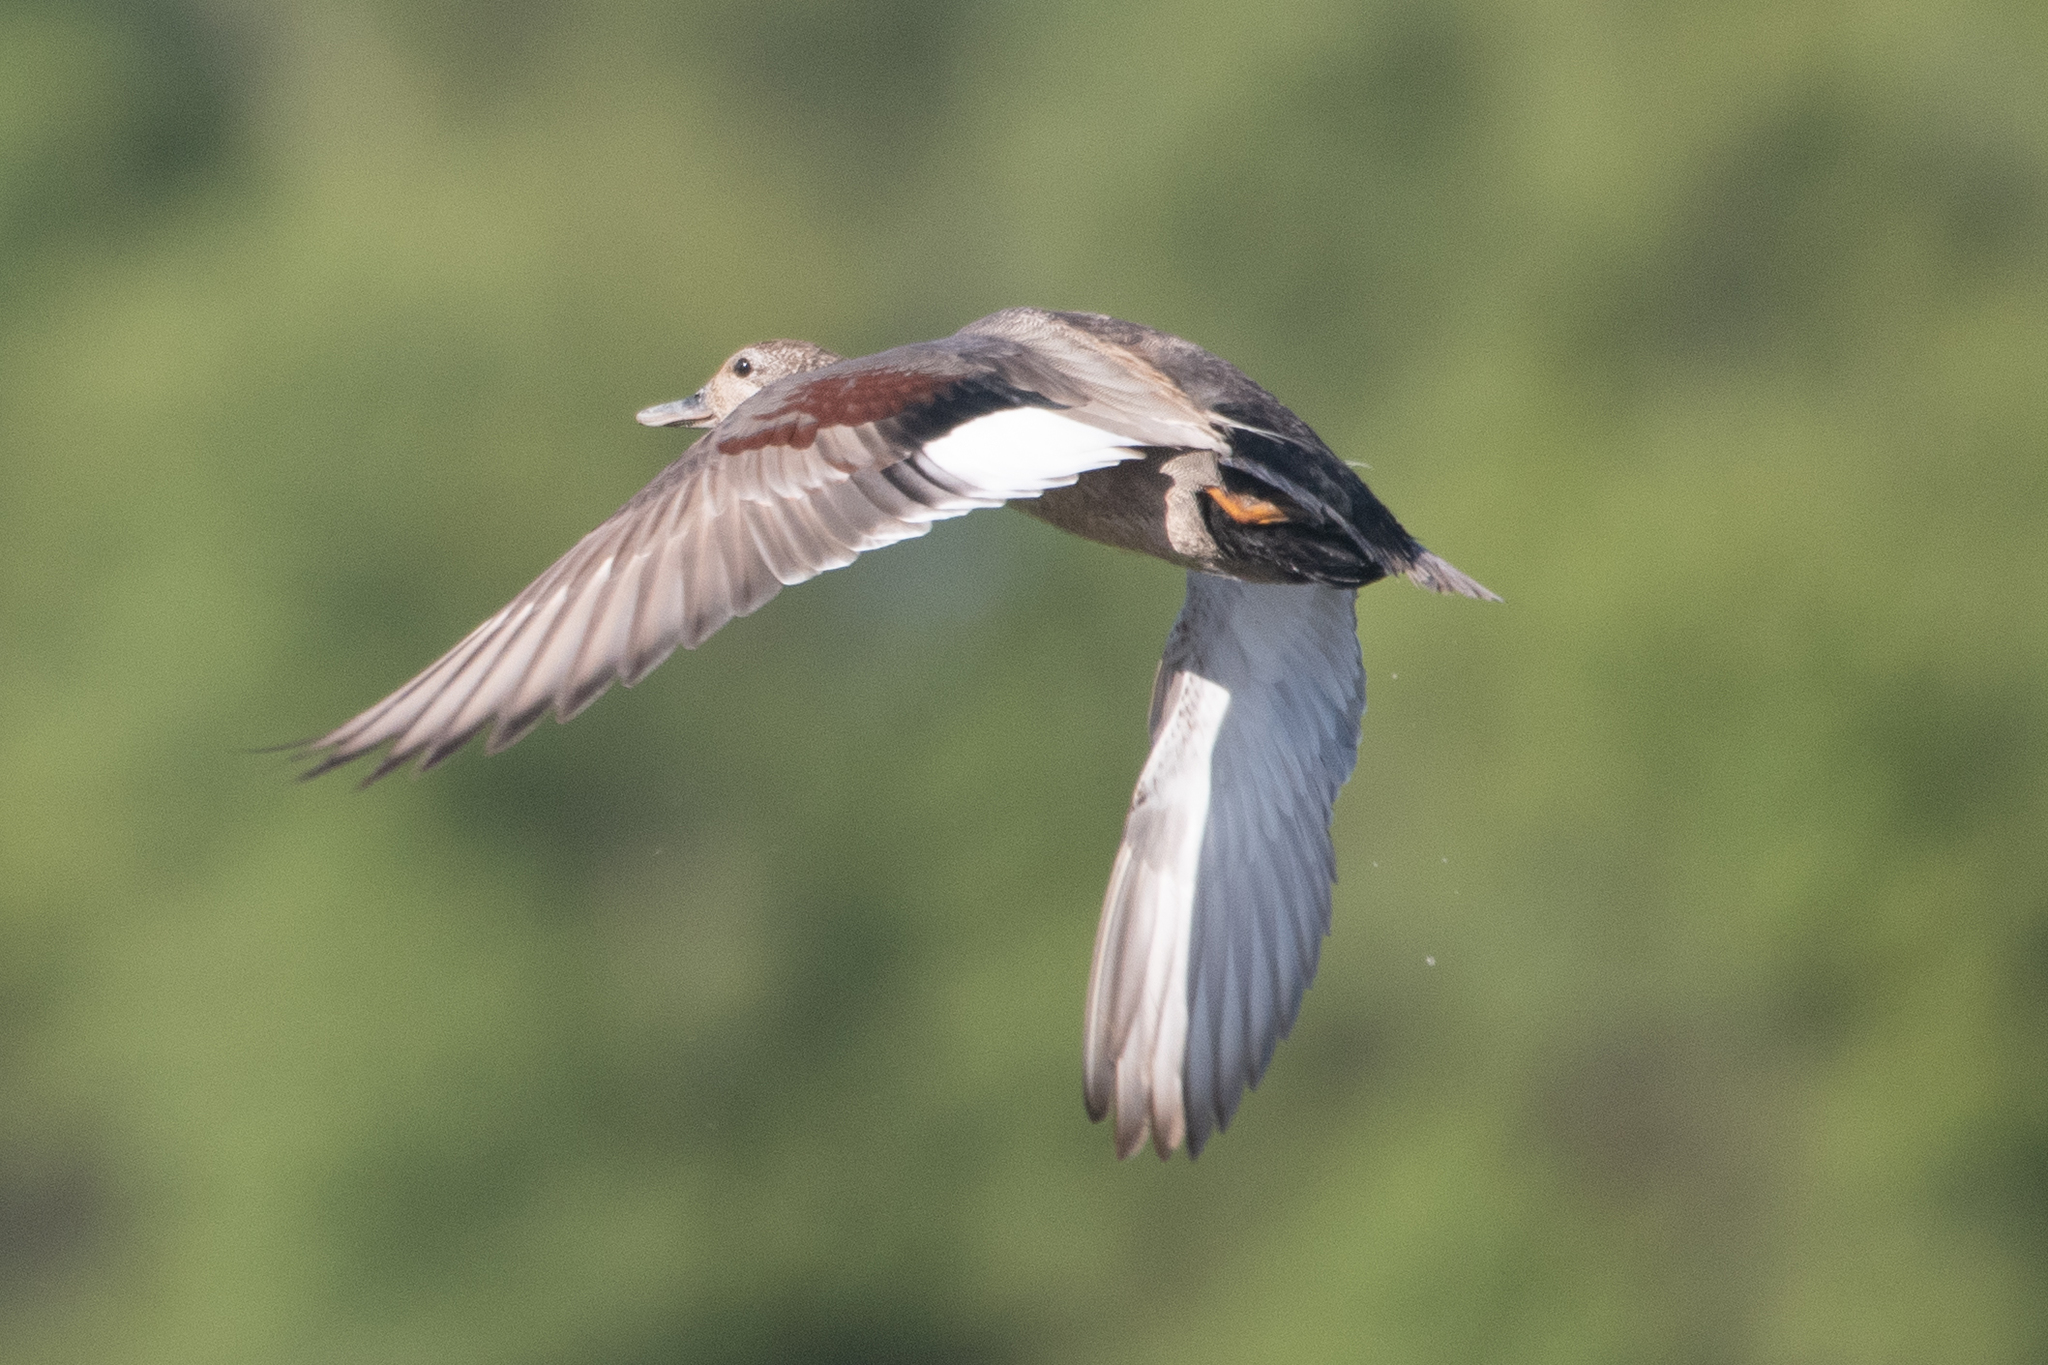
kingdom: Animalia
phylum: Chordata
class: Aves
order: Anseriformes
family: Anatidae
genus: Mareca
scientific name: Mareca strepera
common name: Gadwall
